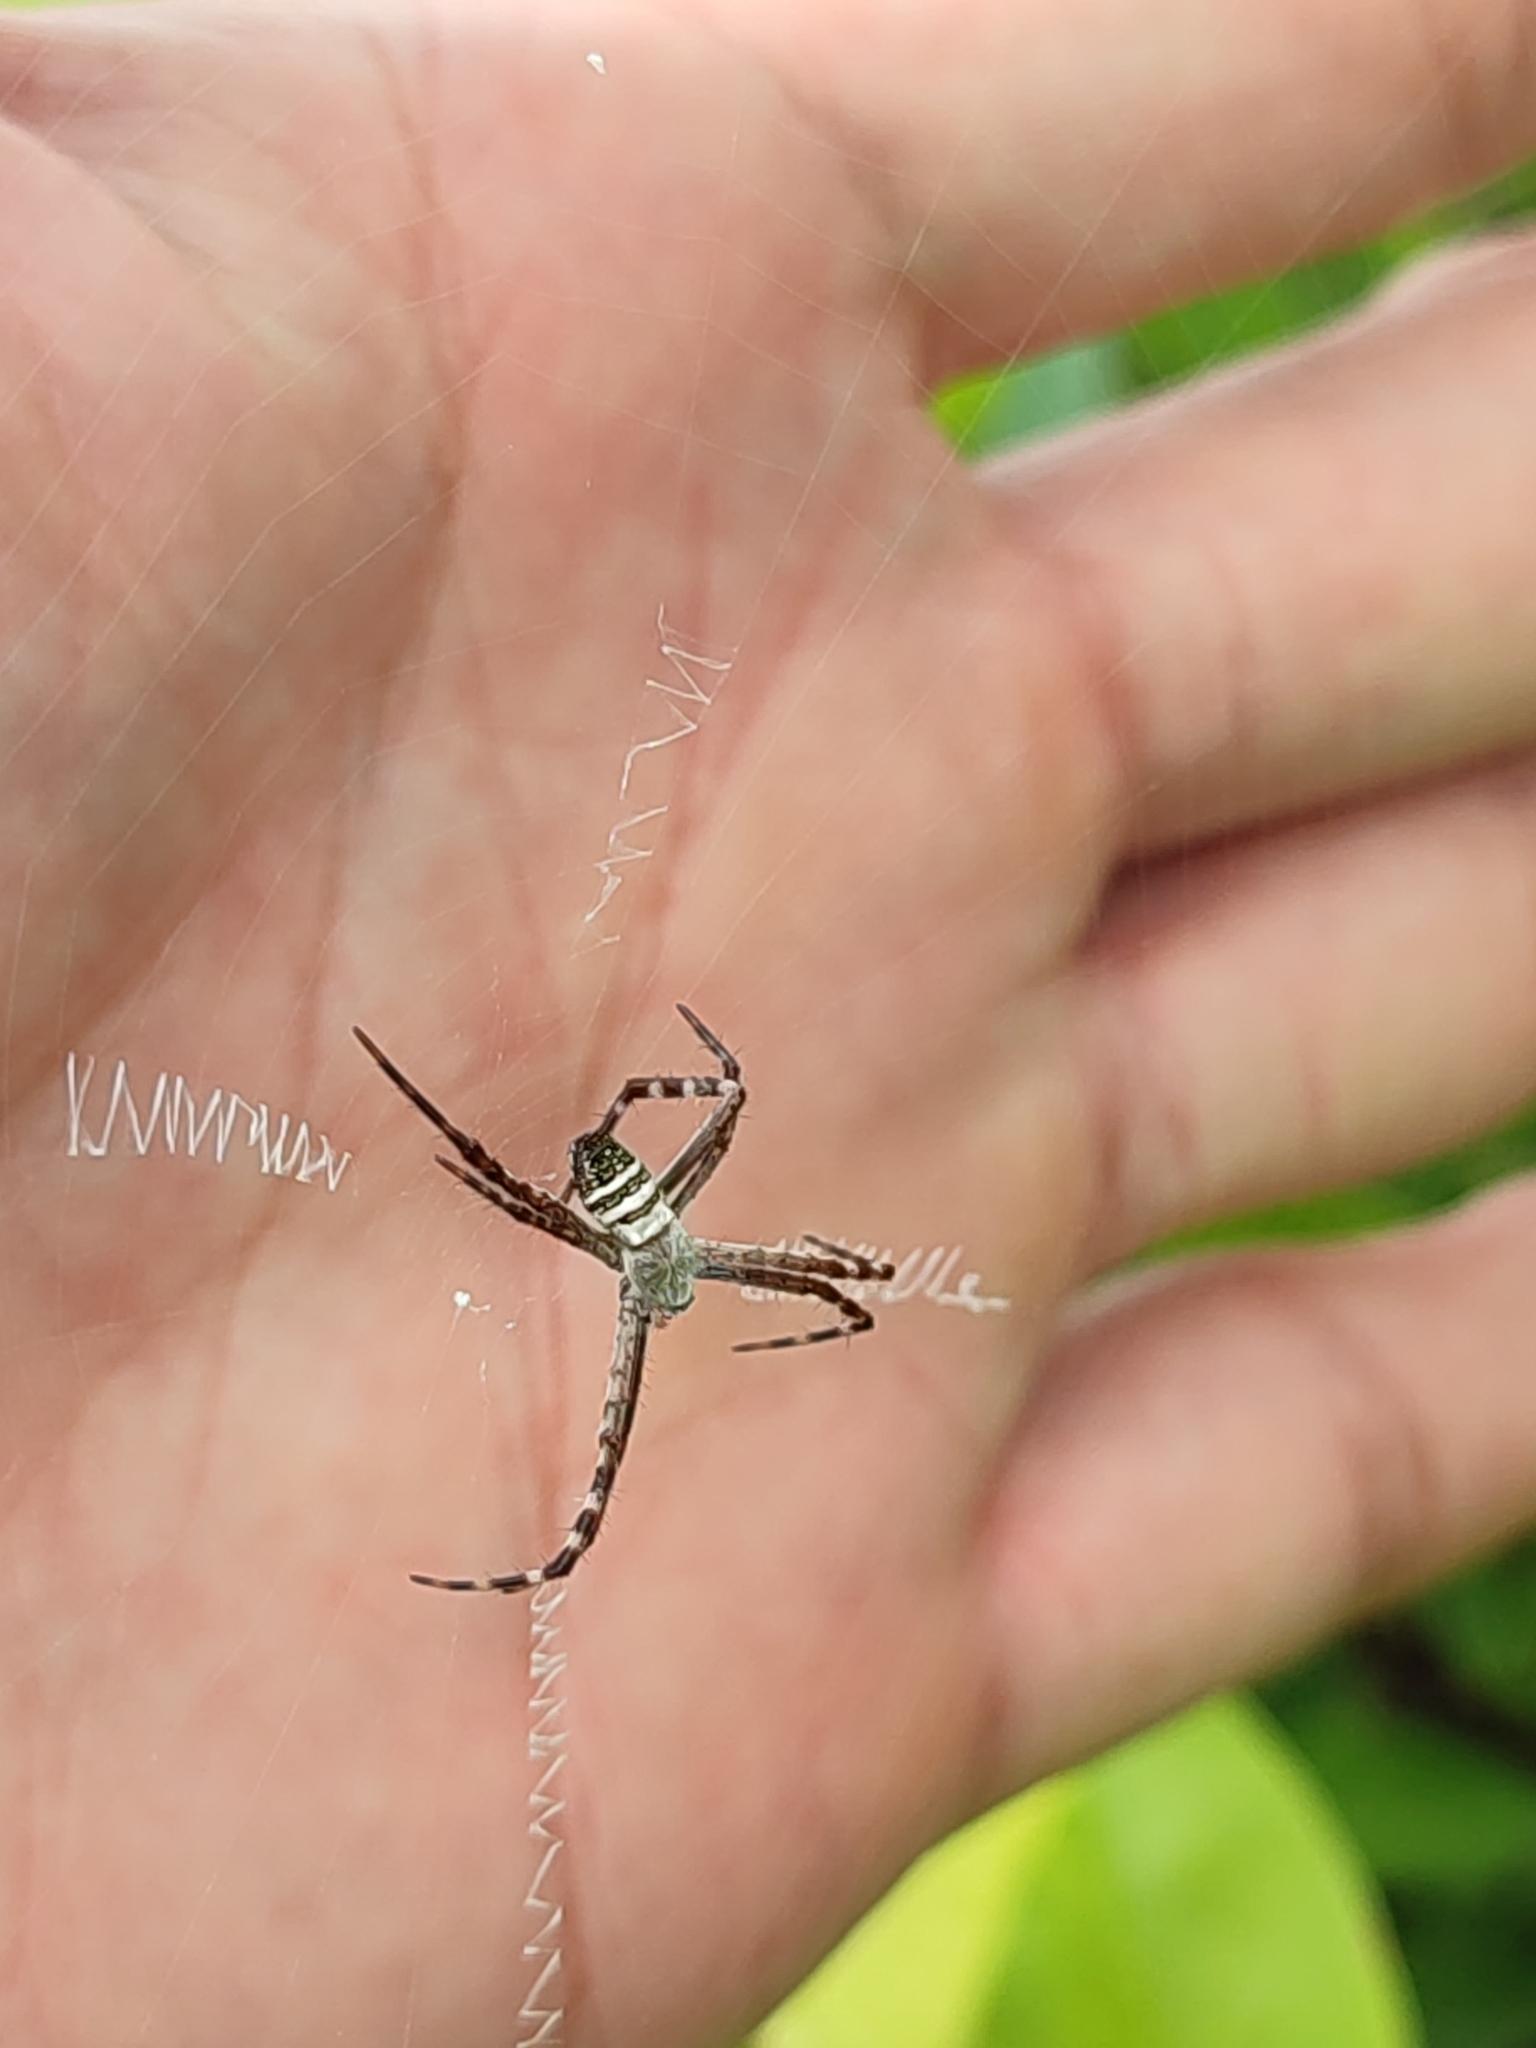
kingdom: Animalia
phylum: Arthropoda
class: Arachnida
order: Araneae
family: Araneidae
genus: Argiope
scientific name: Argiope aemula
